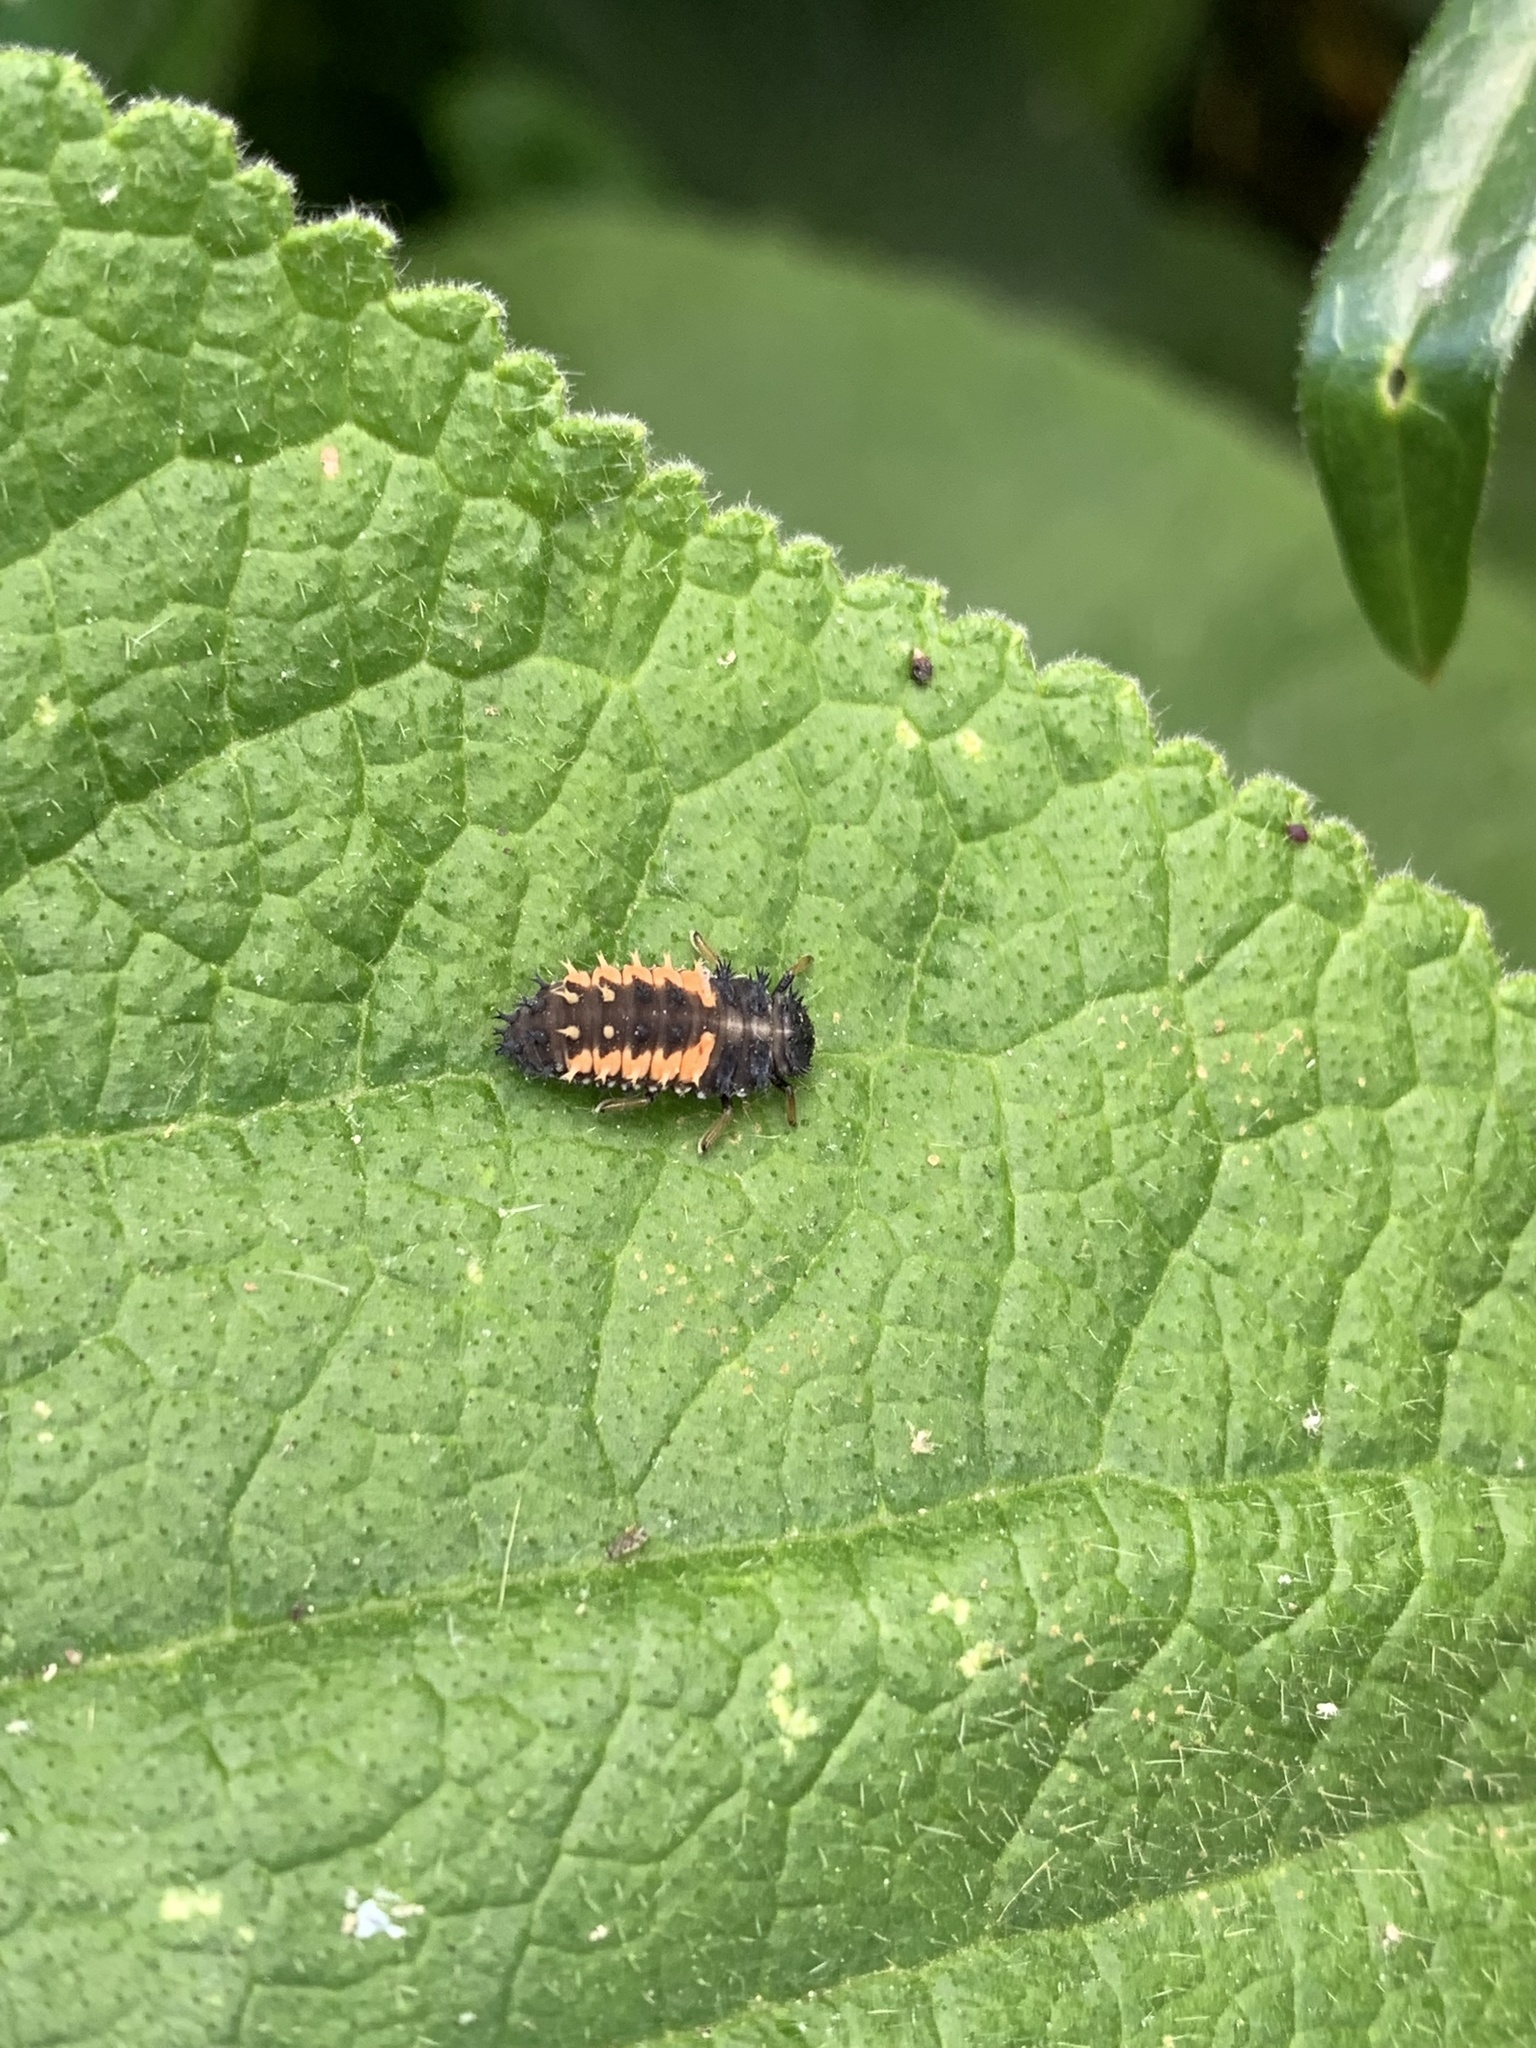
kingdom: Animalia
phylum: Arthropoda
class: Insecta
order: Coleoptera
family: Coccinellidae
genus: Harmonia
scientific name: Harmonia axyridis
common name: Harlequin ladybird
